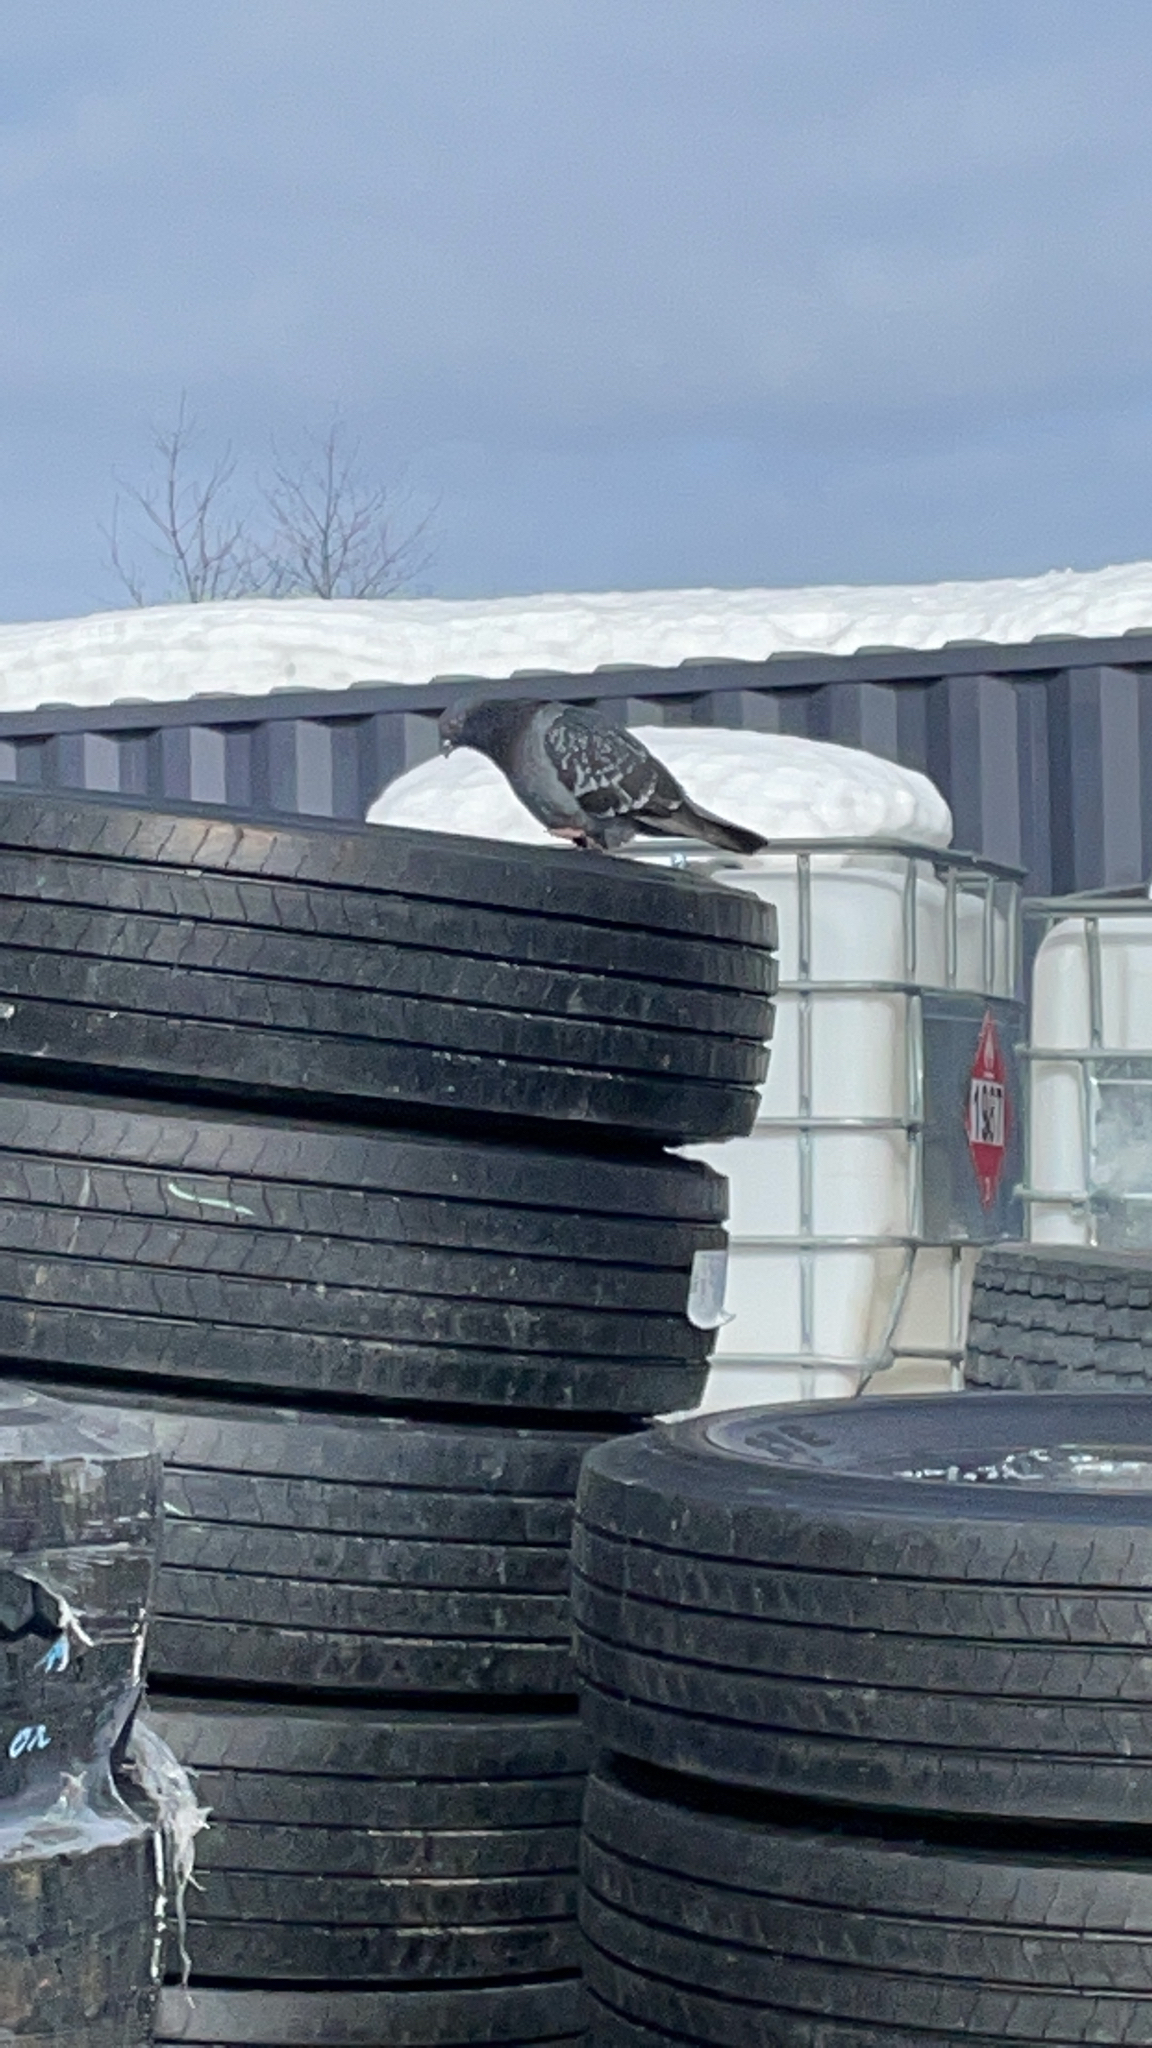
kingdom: Animalia
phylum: Chordata
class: Aves
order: Columbiformes
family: Columbidae
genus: Columba
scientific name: Columba livia
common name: Rock pigeon
